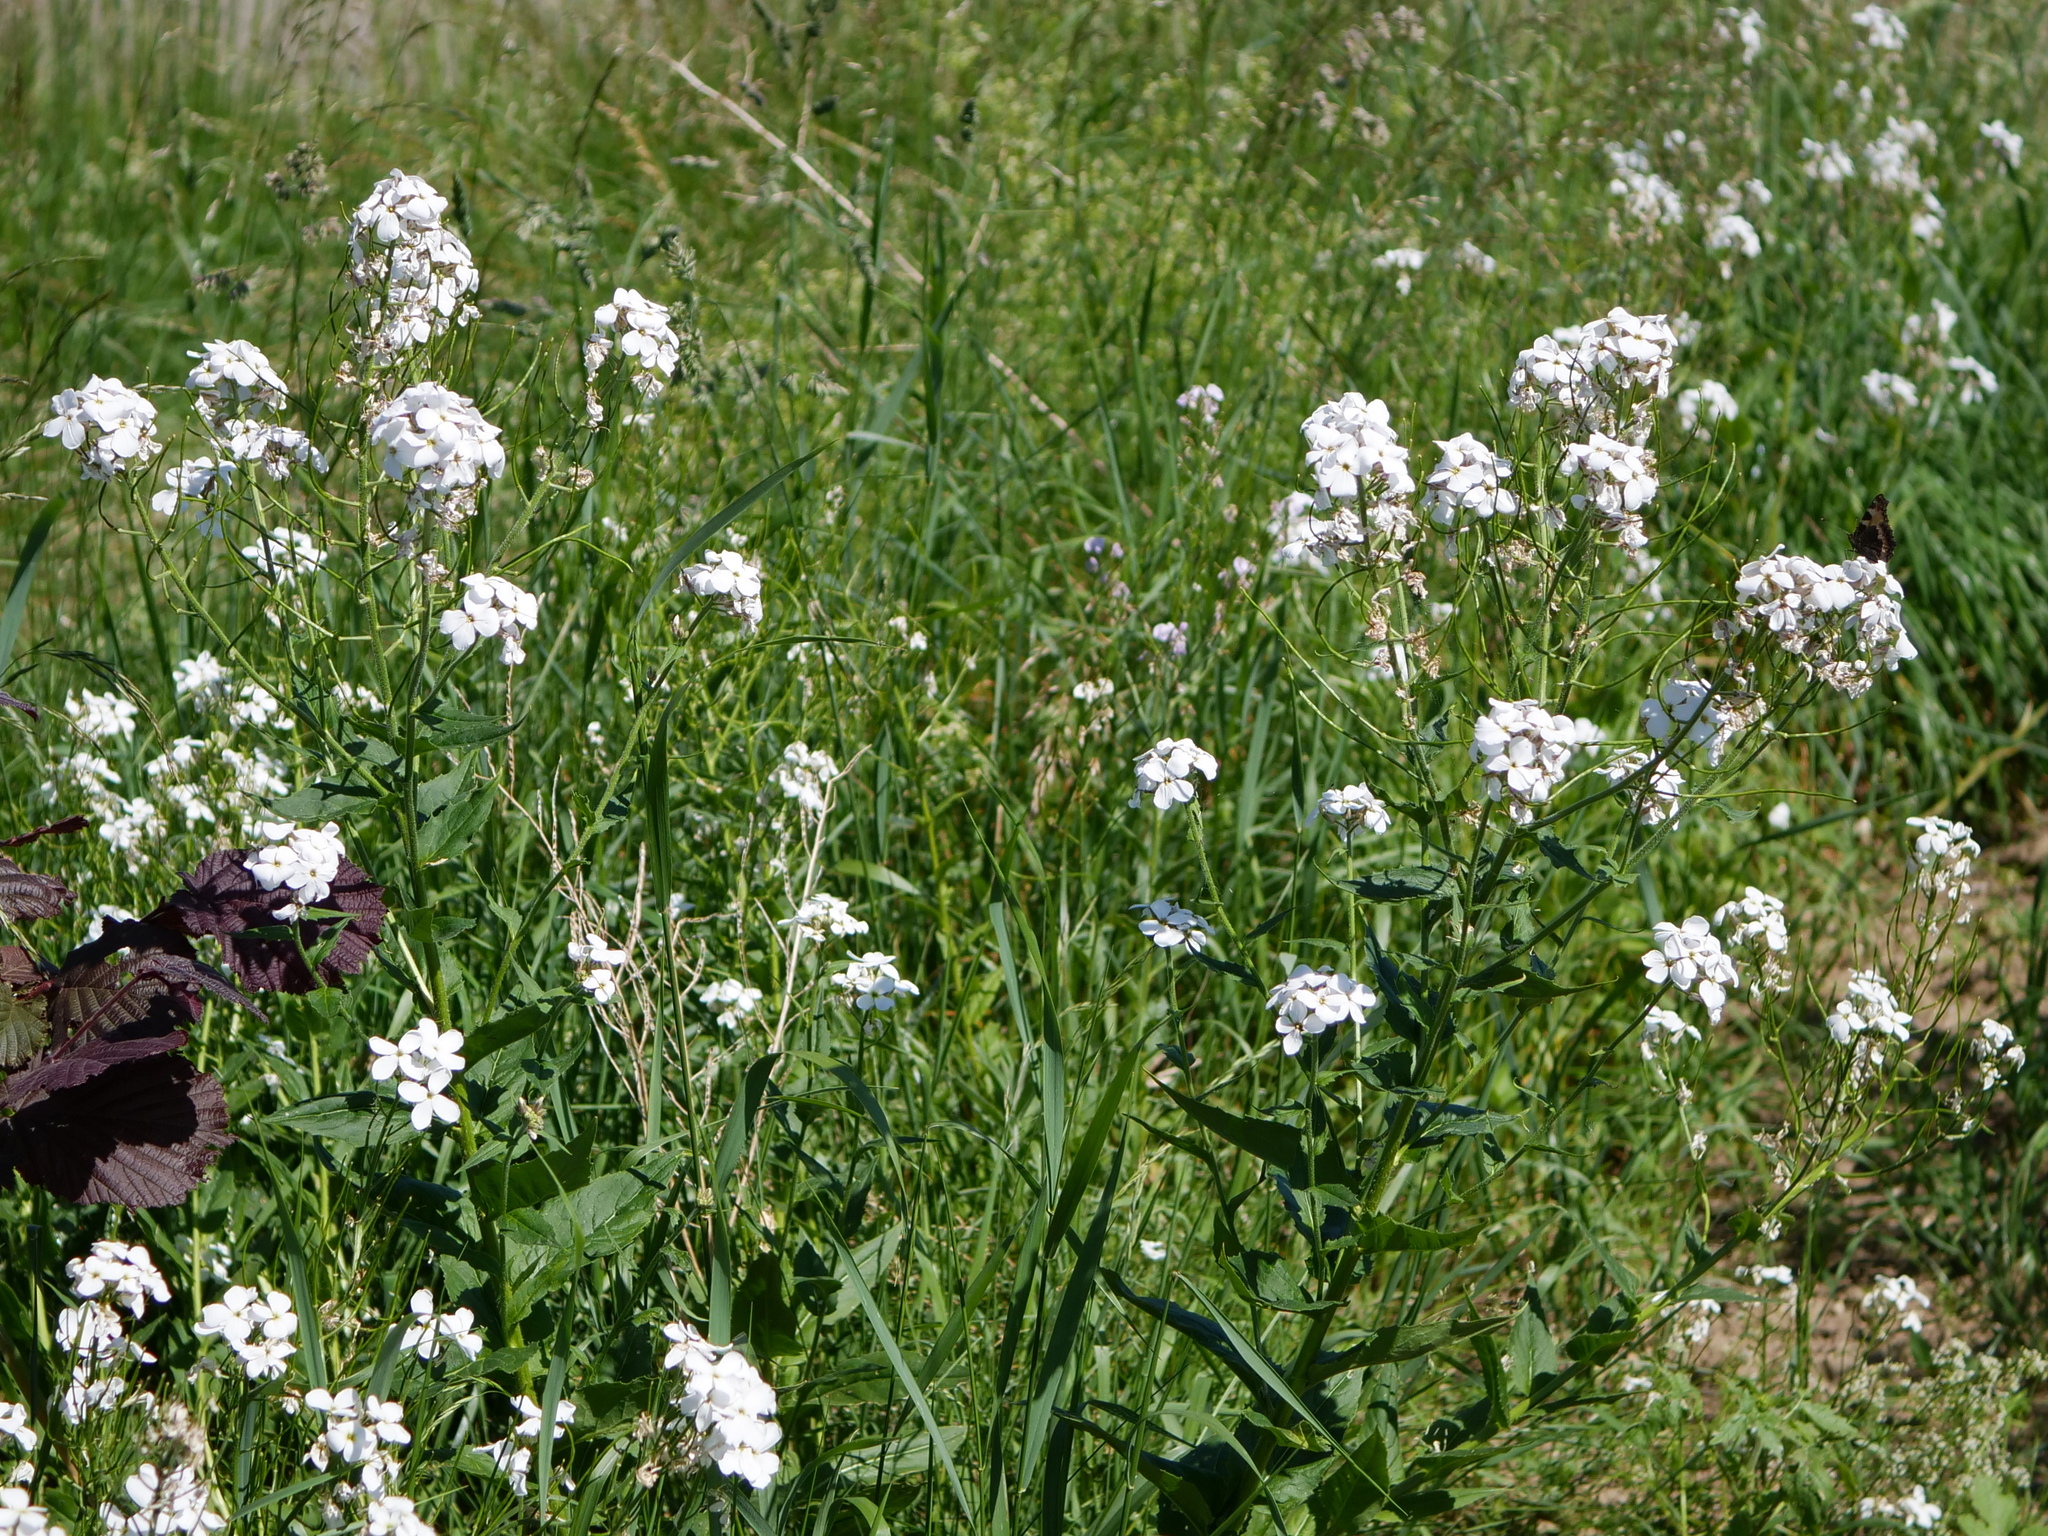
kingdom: Plantae
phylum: Tracheophyta
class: Magnoliopsida
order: Brassicales
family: Brassicaceae
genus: Hesperis
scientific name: Hesperis matronalis
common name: Dame's-violet
